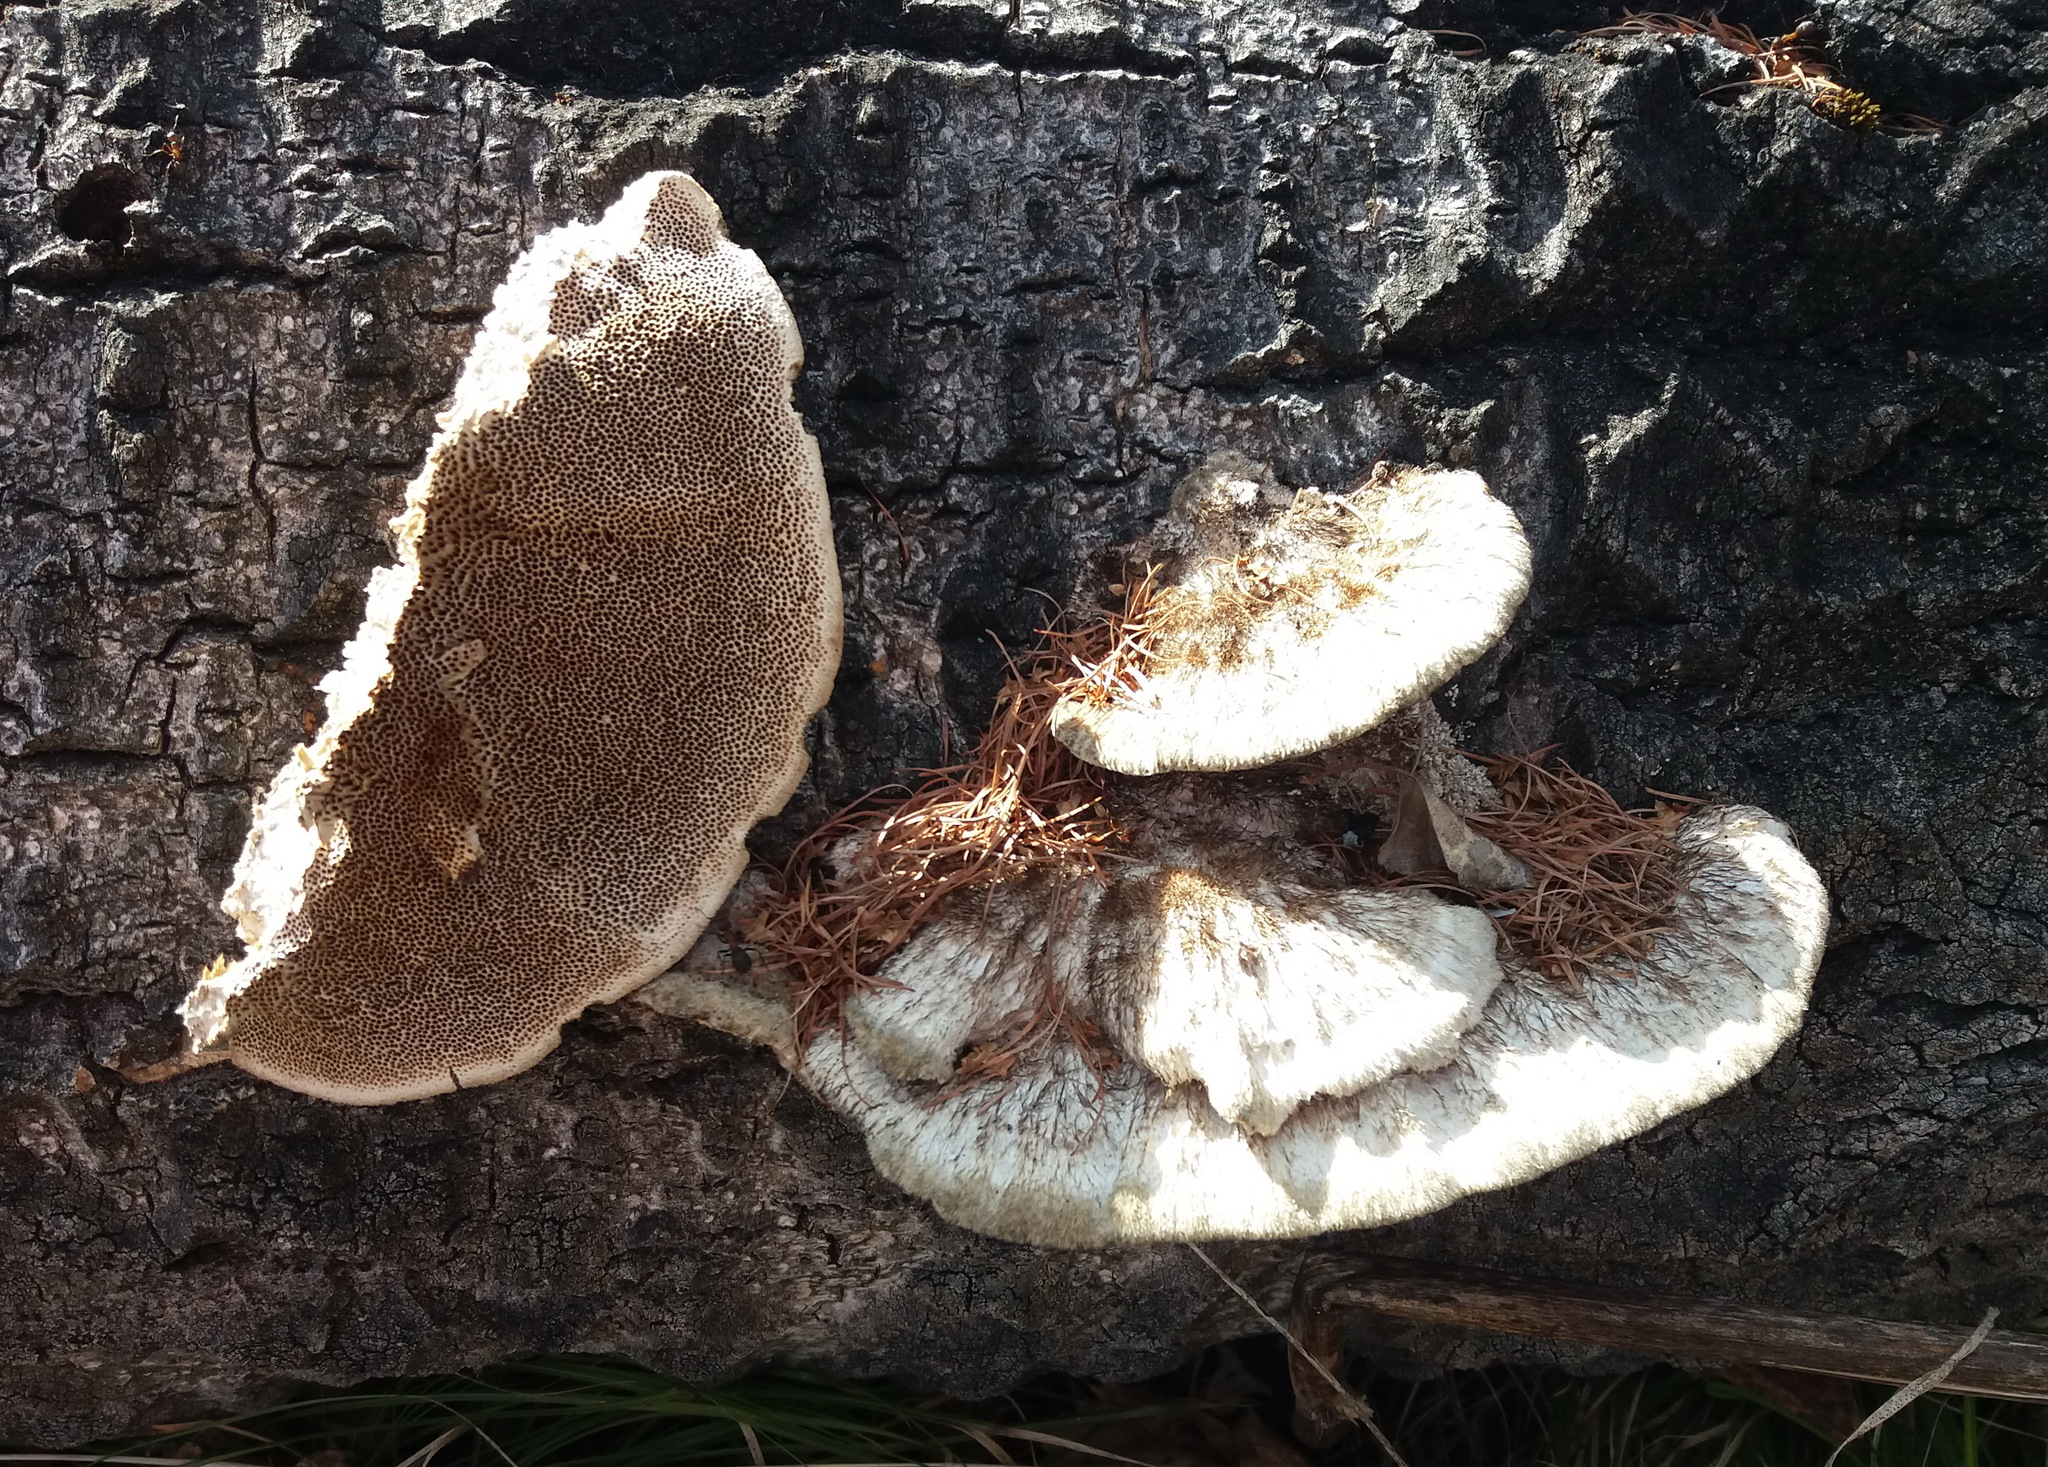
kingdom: Fungi
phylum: Basidiomycota
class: Agaricomycetes
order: Polyporales
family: Polyporaceae
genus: Trametes
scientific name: Trametes hirsuta
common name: Hairy bracket
